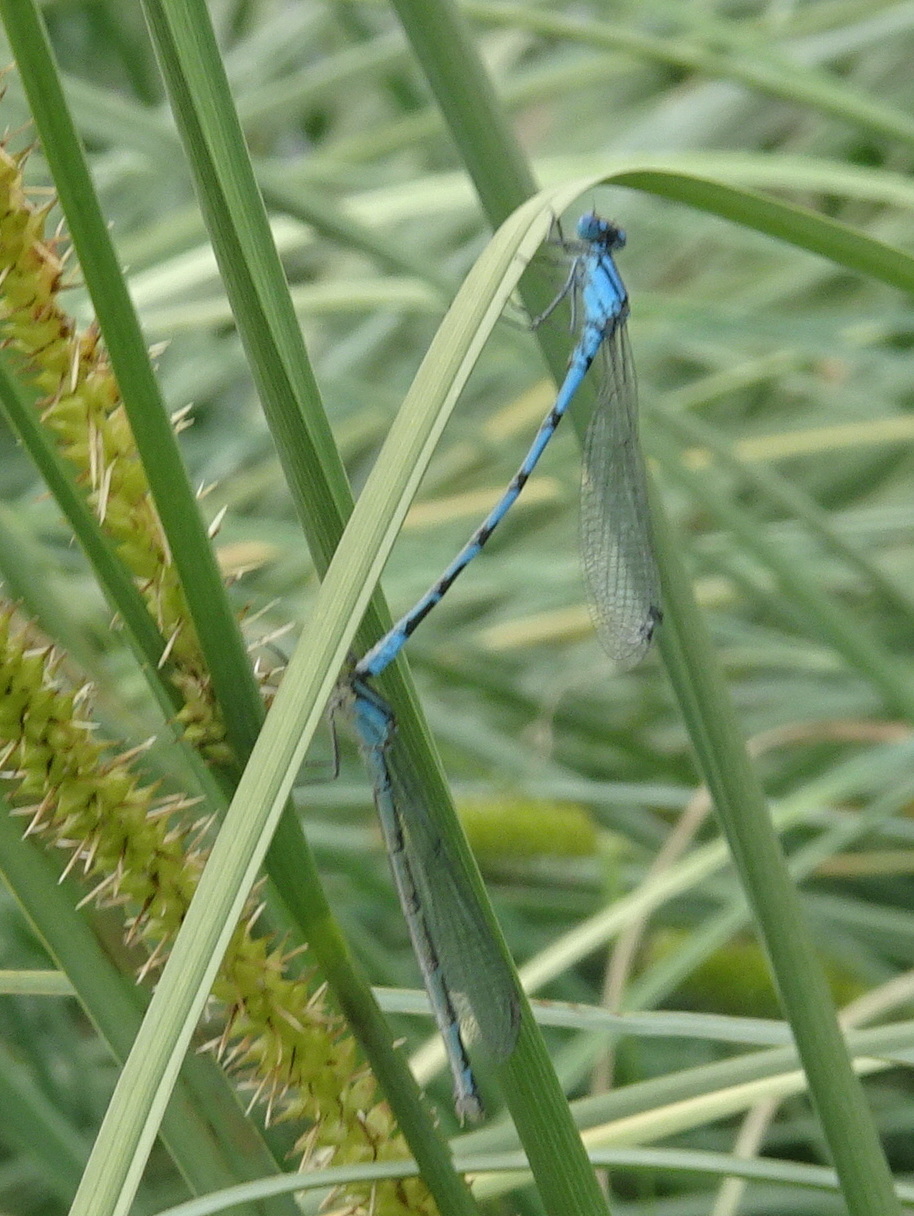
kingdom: Animalia
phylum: Arthropoda
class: Insecta
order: Odonata
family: Coenagrionidae
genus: Enallagma
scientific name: Enallagma cyathigerum
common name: Common blue damselfly
